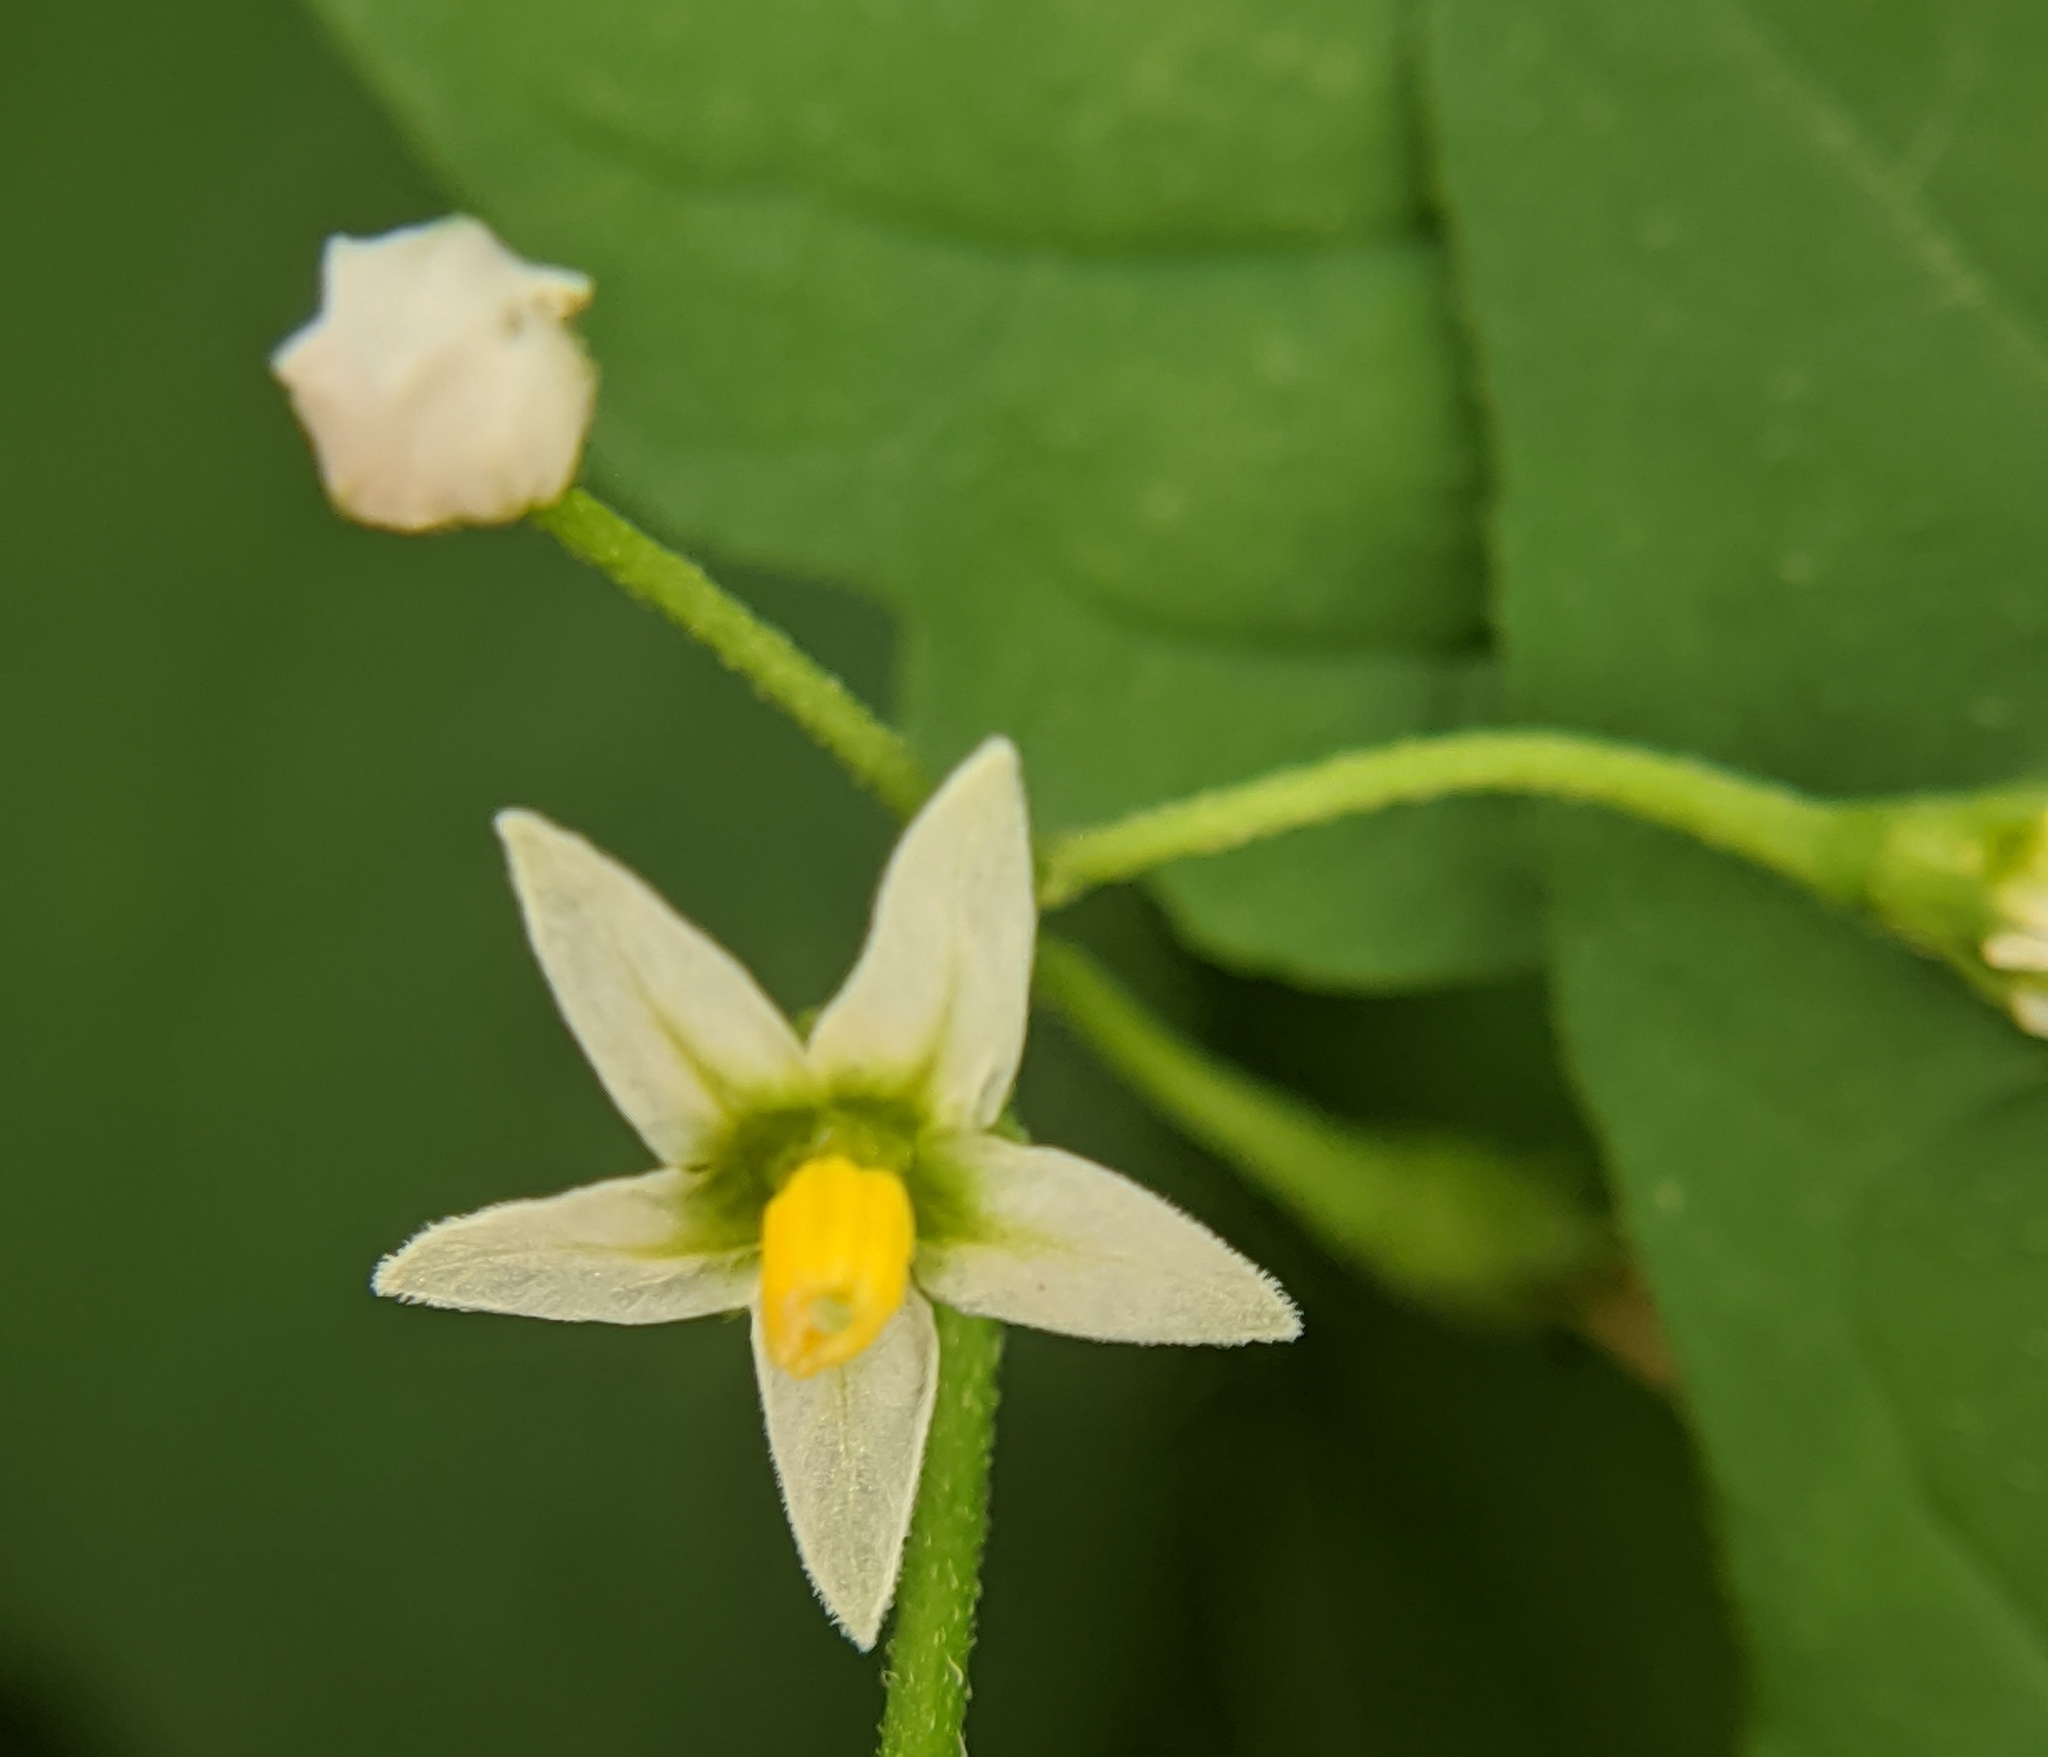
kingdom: Plantae
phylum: Tracheophyta
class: Magnoliopsida
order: Solanales
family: Solanaceae
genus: Solanum
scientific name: Solanum emulans
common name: Eastern black nightshade
